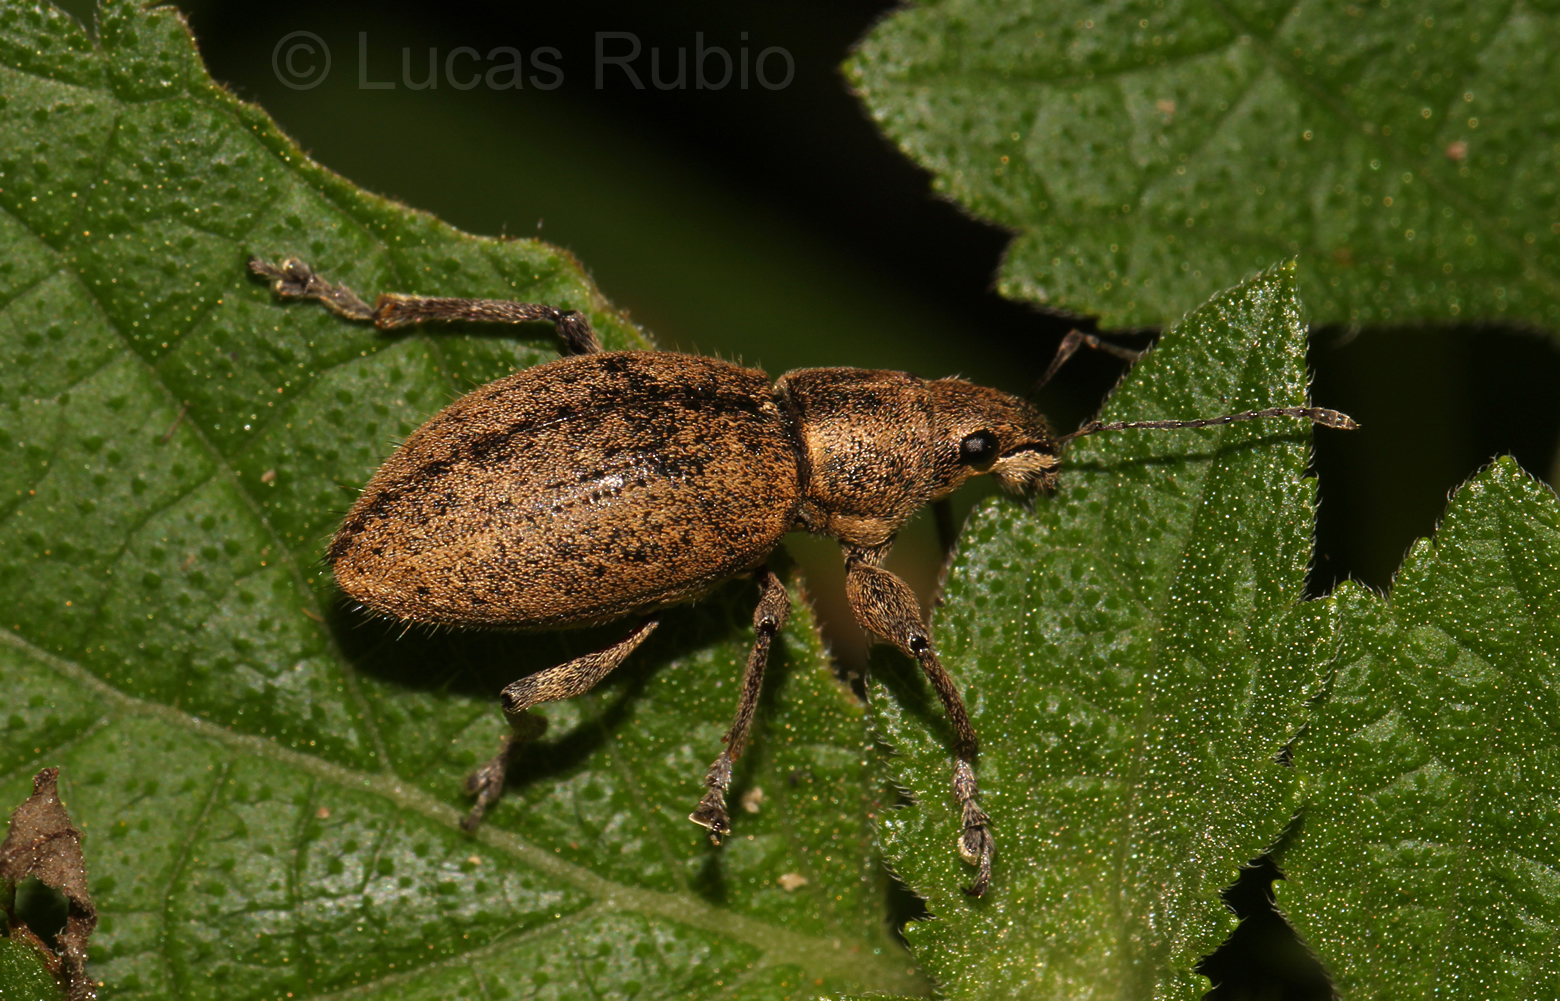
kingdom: Animalia
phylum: Arthropoda
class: Insecta
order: Coleoptera
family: Curculionidae
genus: Naupactus
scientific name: Naupactus versatilis
